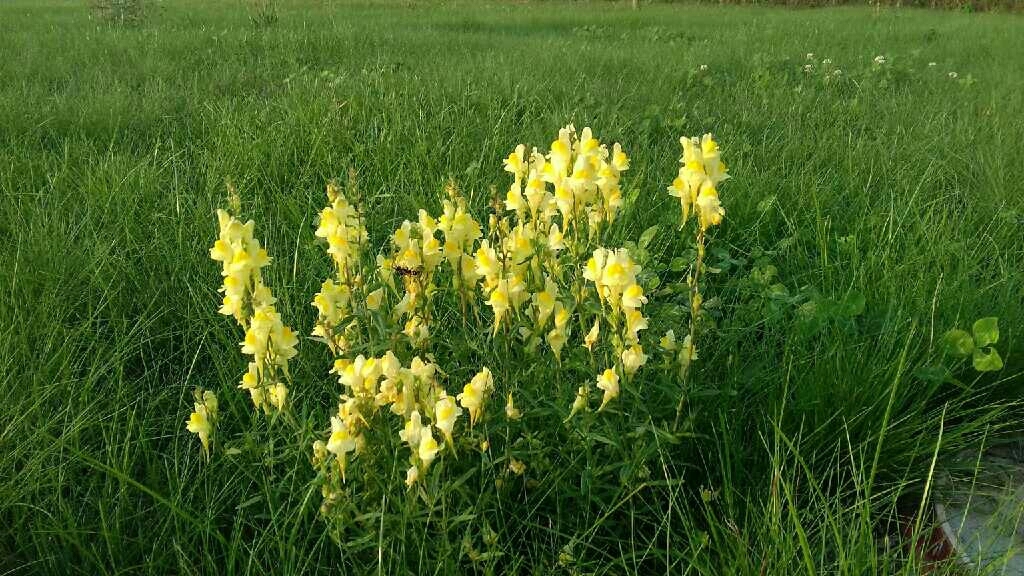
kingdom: Plantae
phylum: Tracheophyta
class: Magnoliopsida
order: Lamiales
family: Plantaginaceae
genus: Linaria
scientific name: Linaria vulgaris
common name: Butter and eggs
